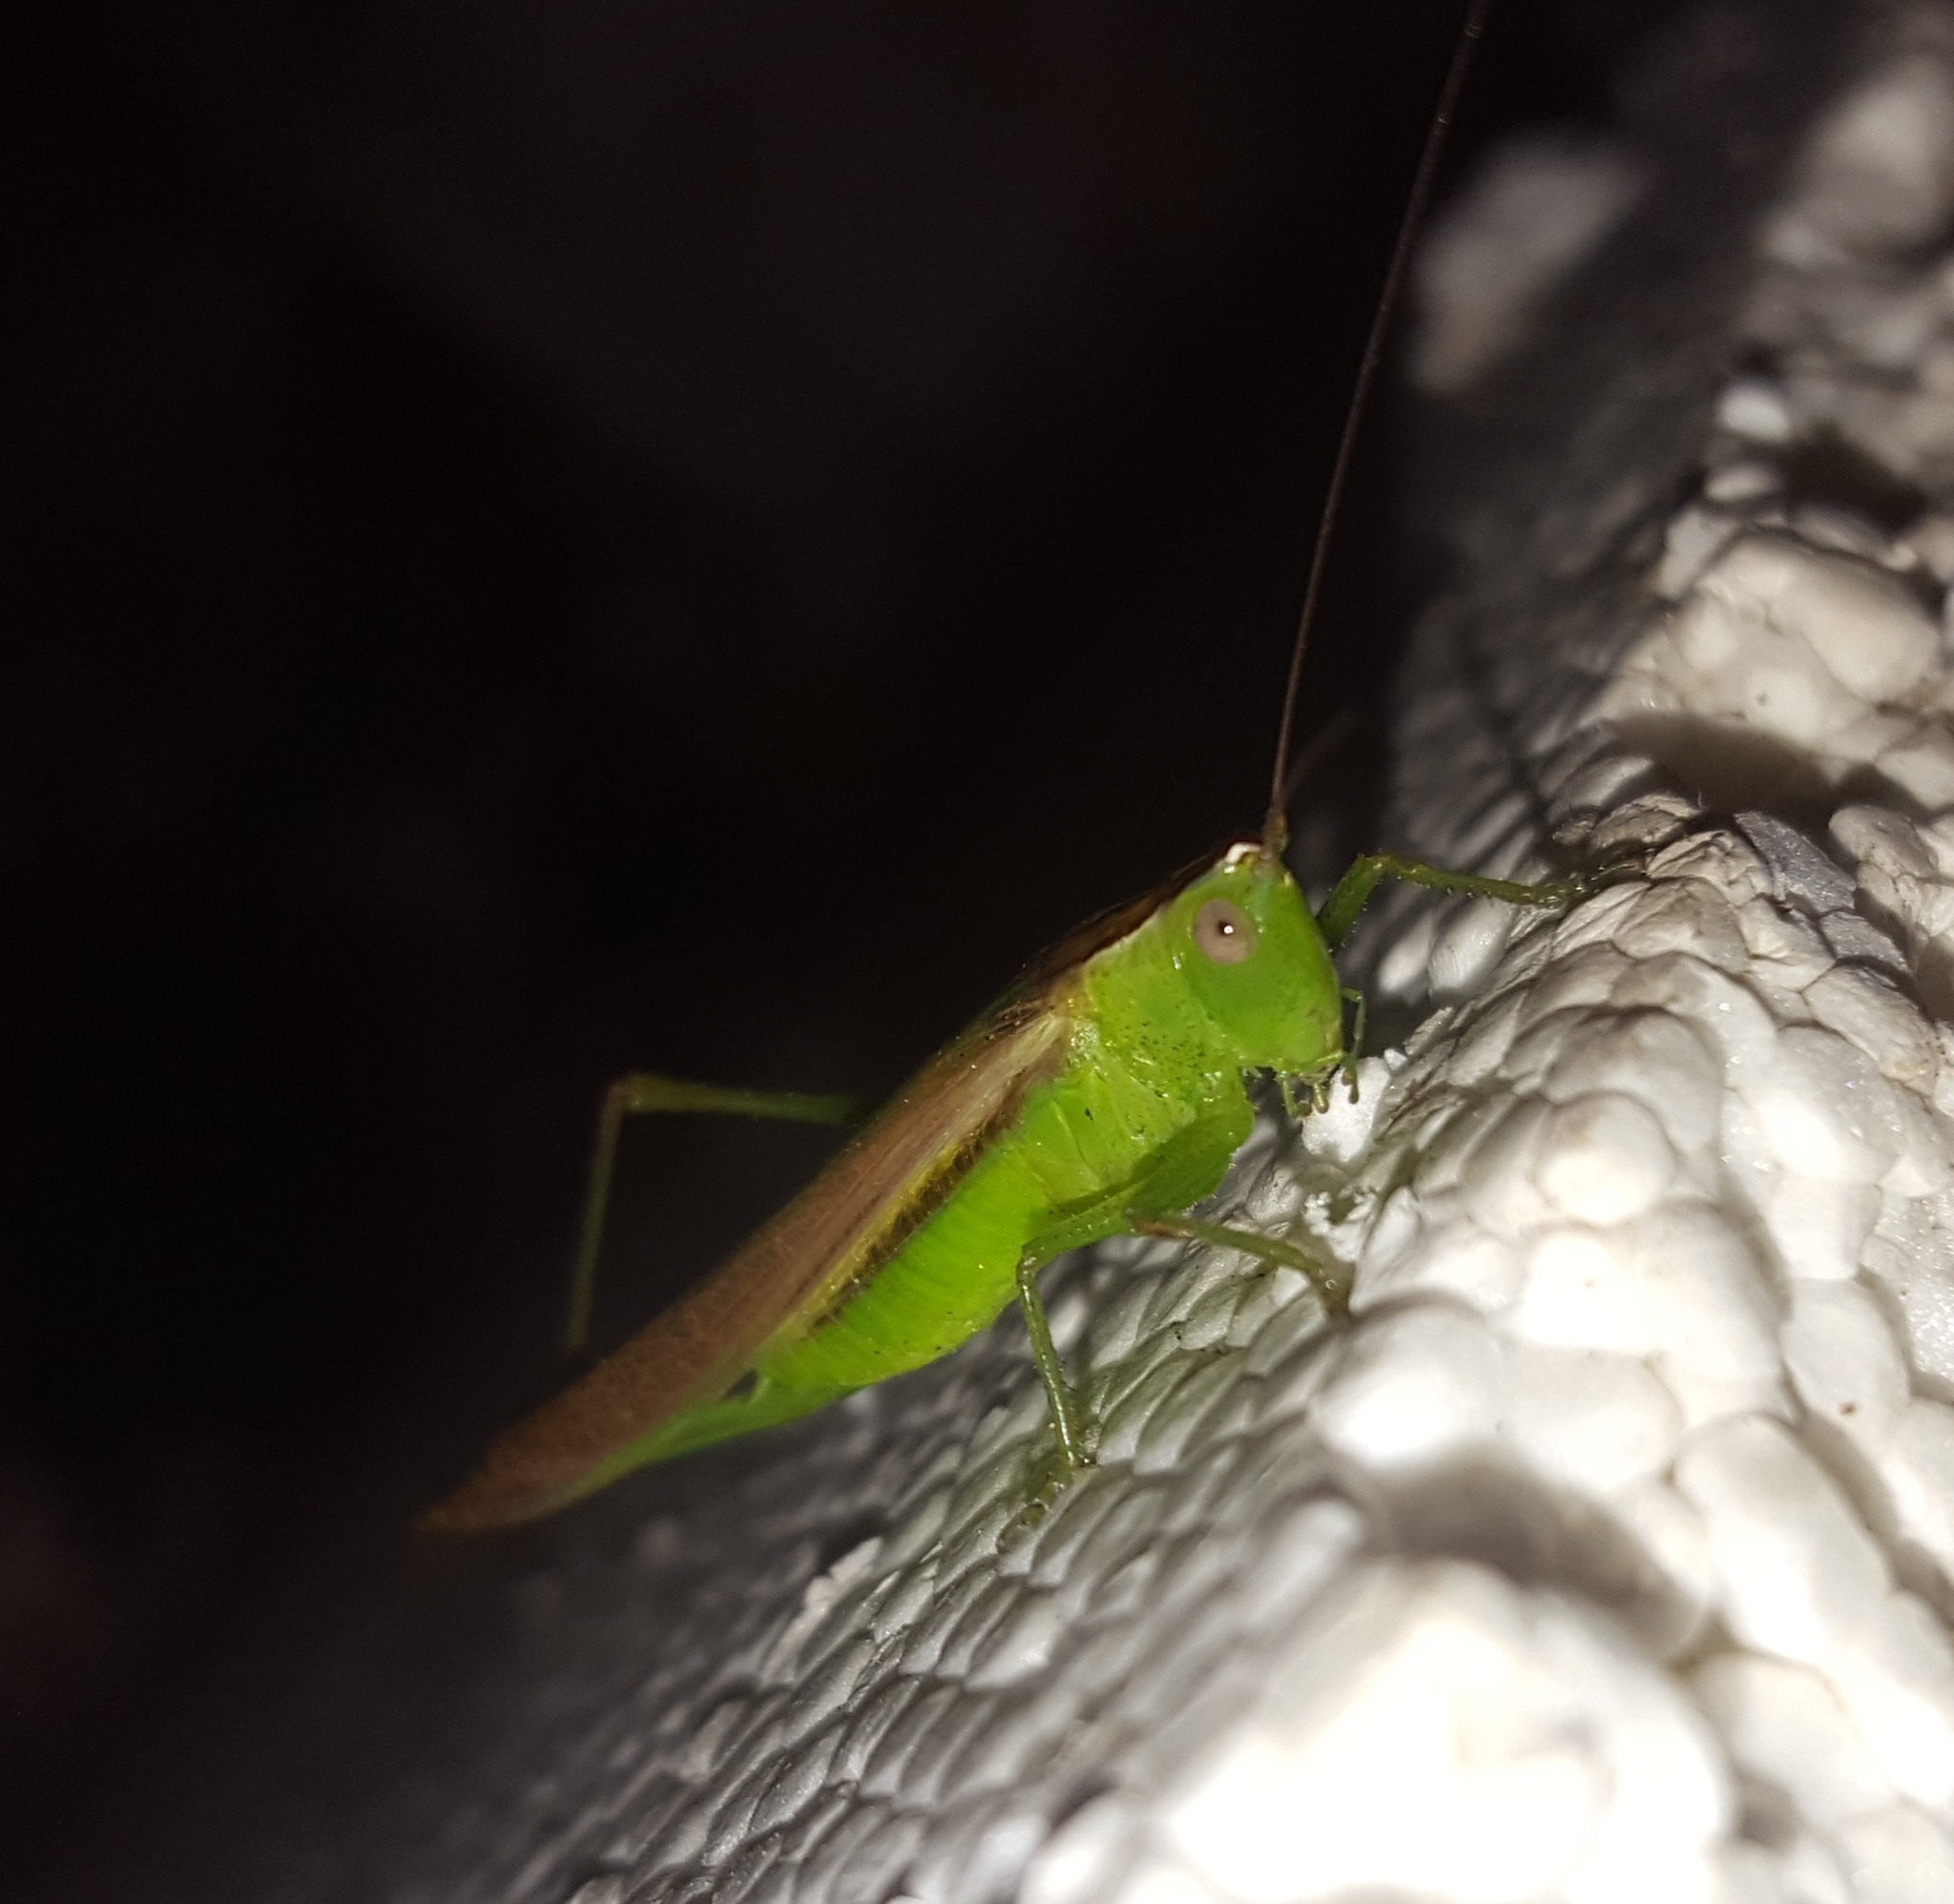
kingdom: Animalia
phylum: Arthropoda
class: Insecta
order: Orthoptera
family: Tettigoniidae
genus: Conocephalus
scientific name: Conocephalus fasciatus
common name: Slender meadow katydid
